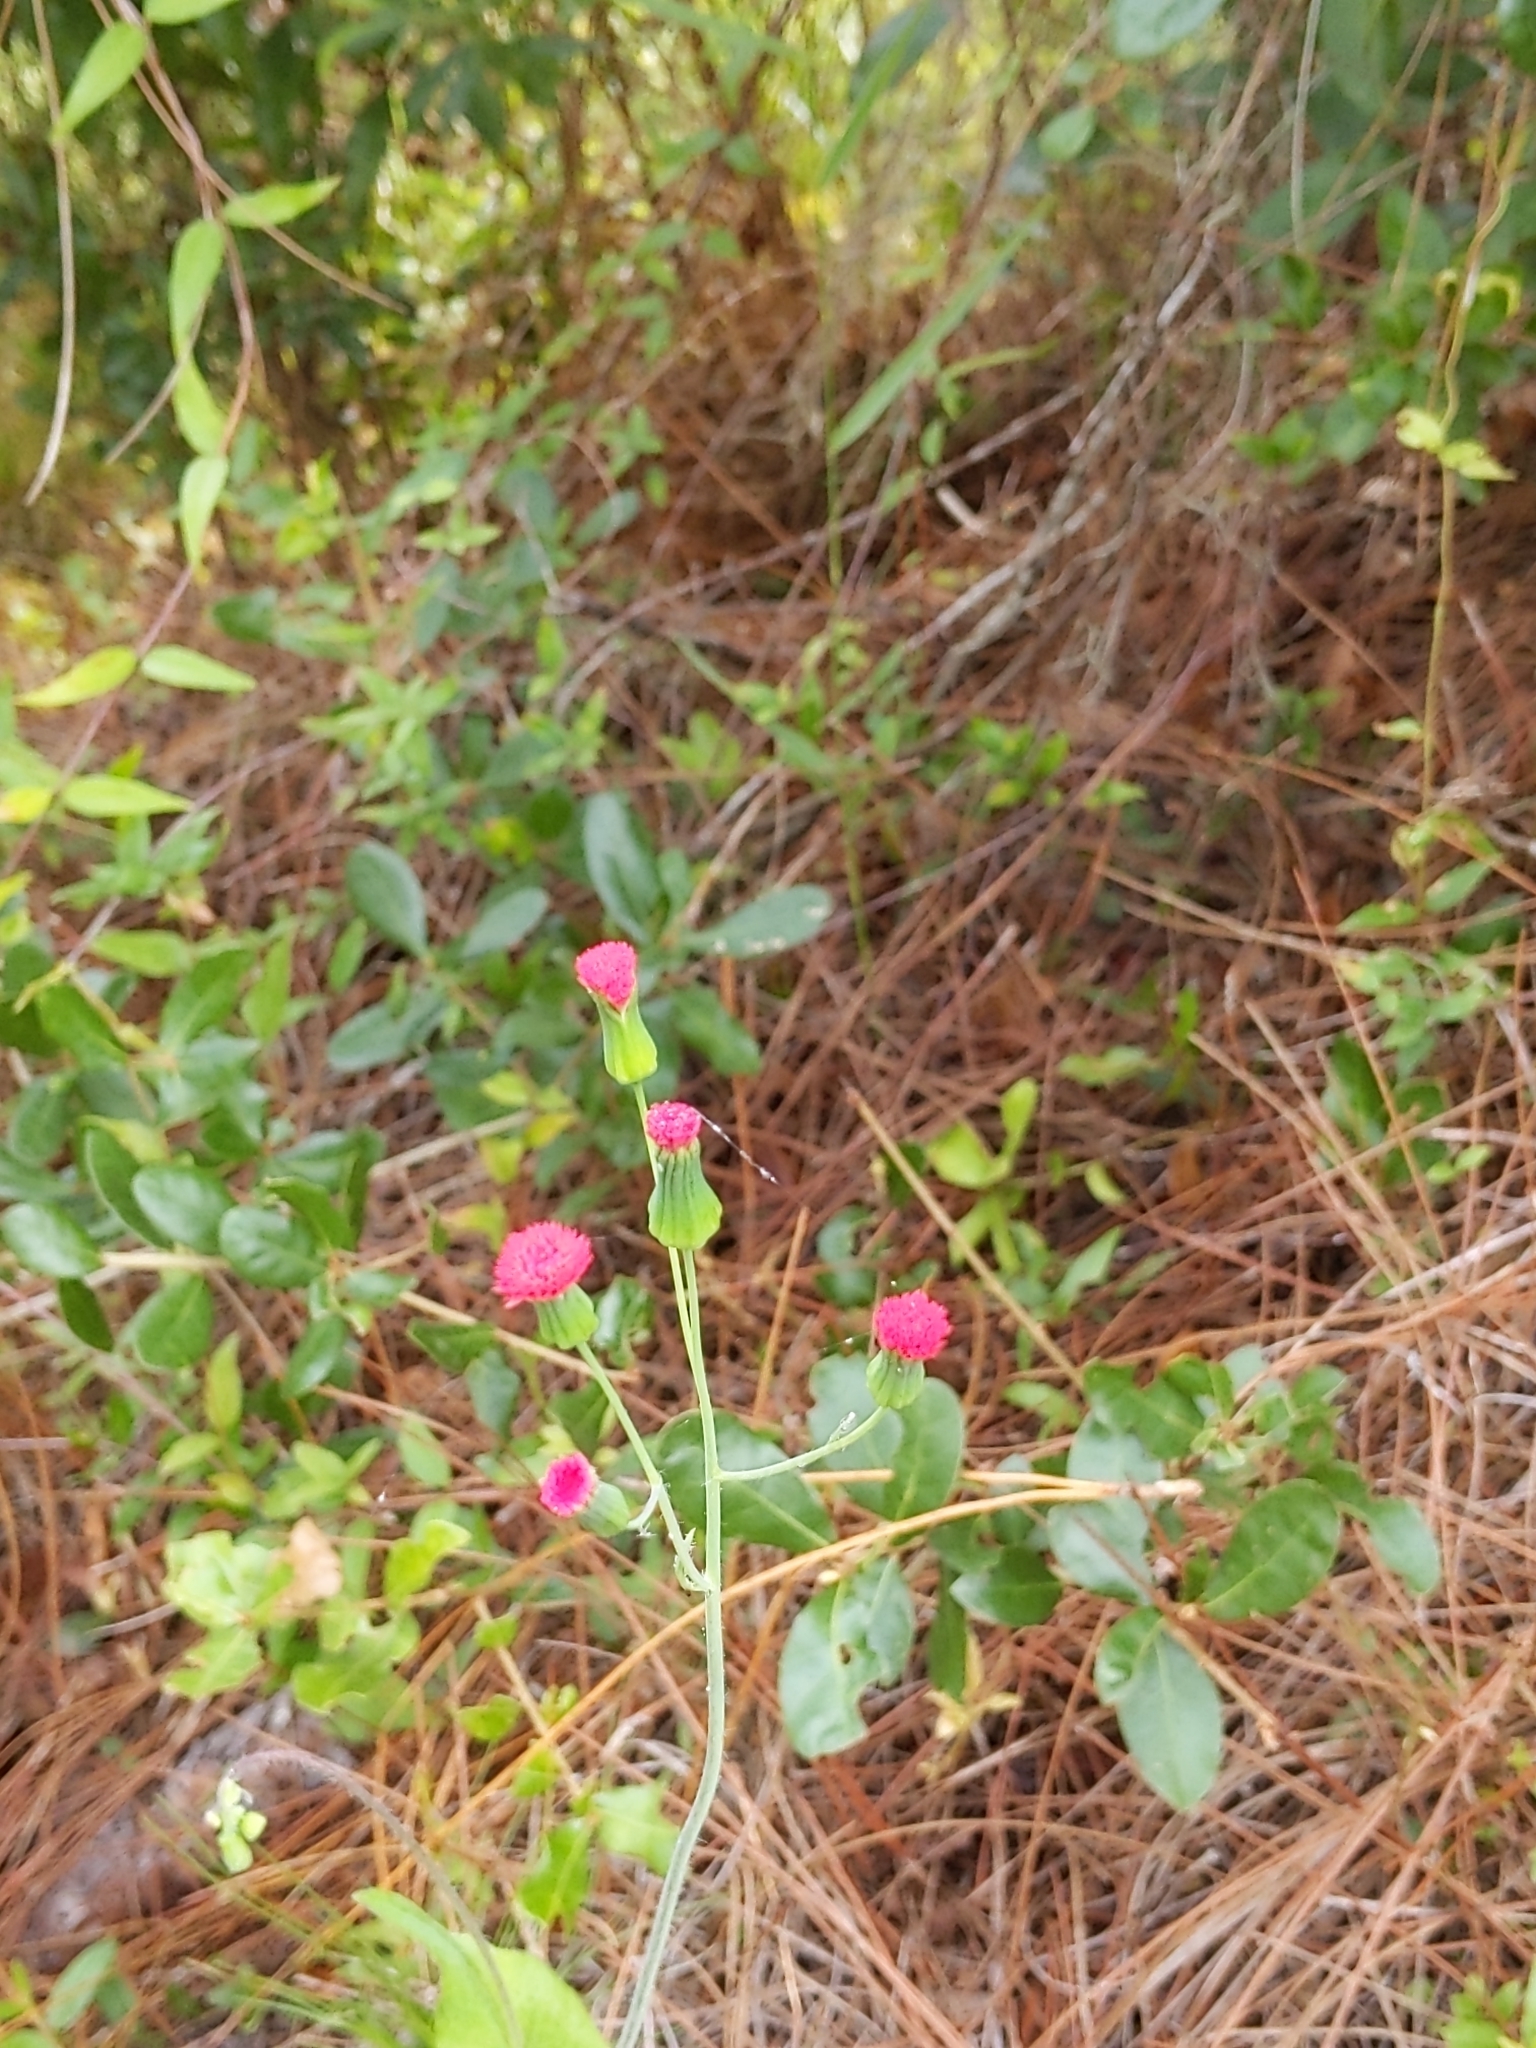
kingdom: Plantae
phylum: Tracheophyta
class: Magnoliopsida
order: Asterales
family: Asteraceae
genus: Emilia
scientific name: Emilia fosbergii
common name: Florida tasselflower
